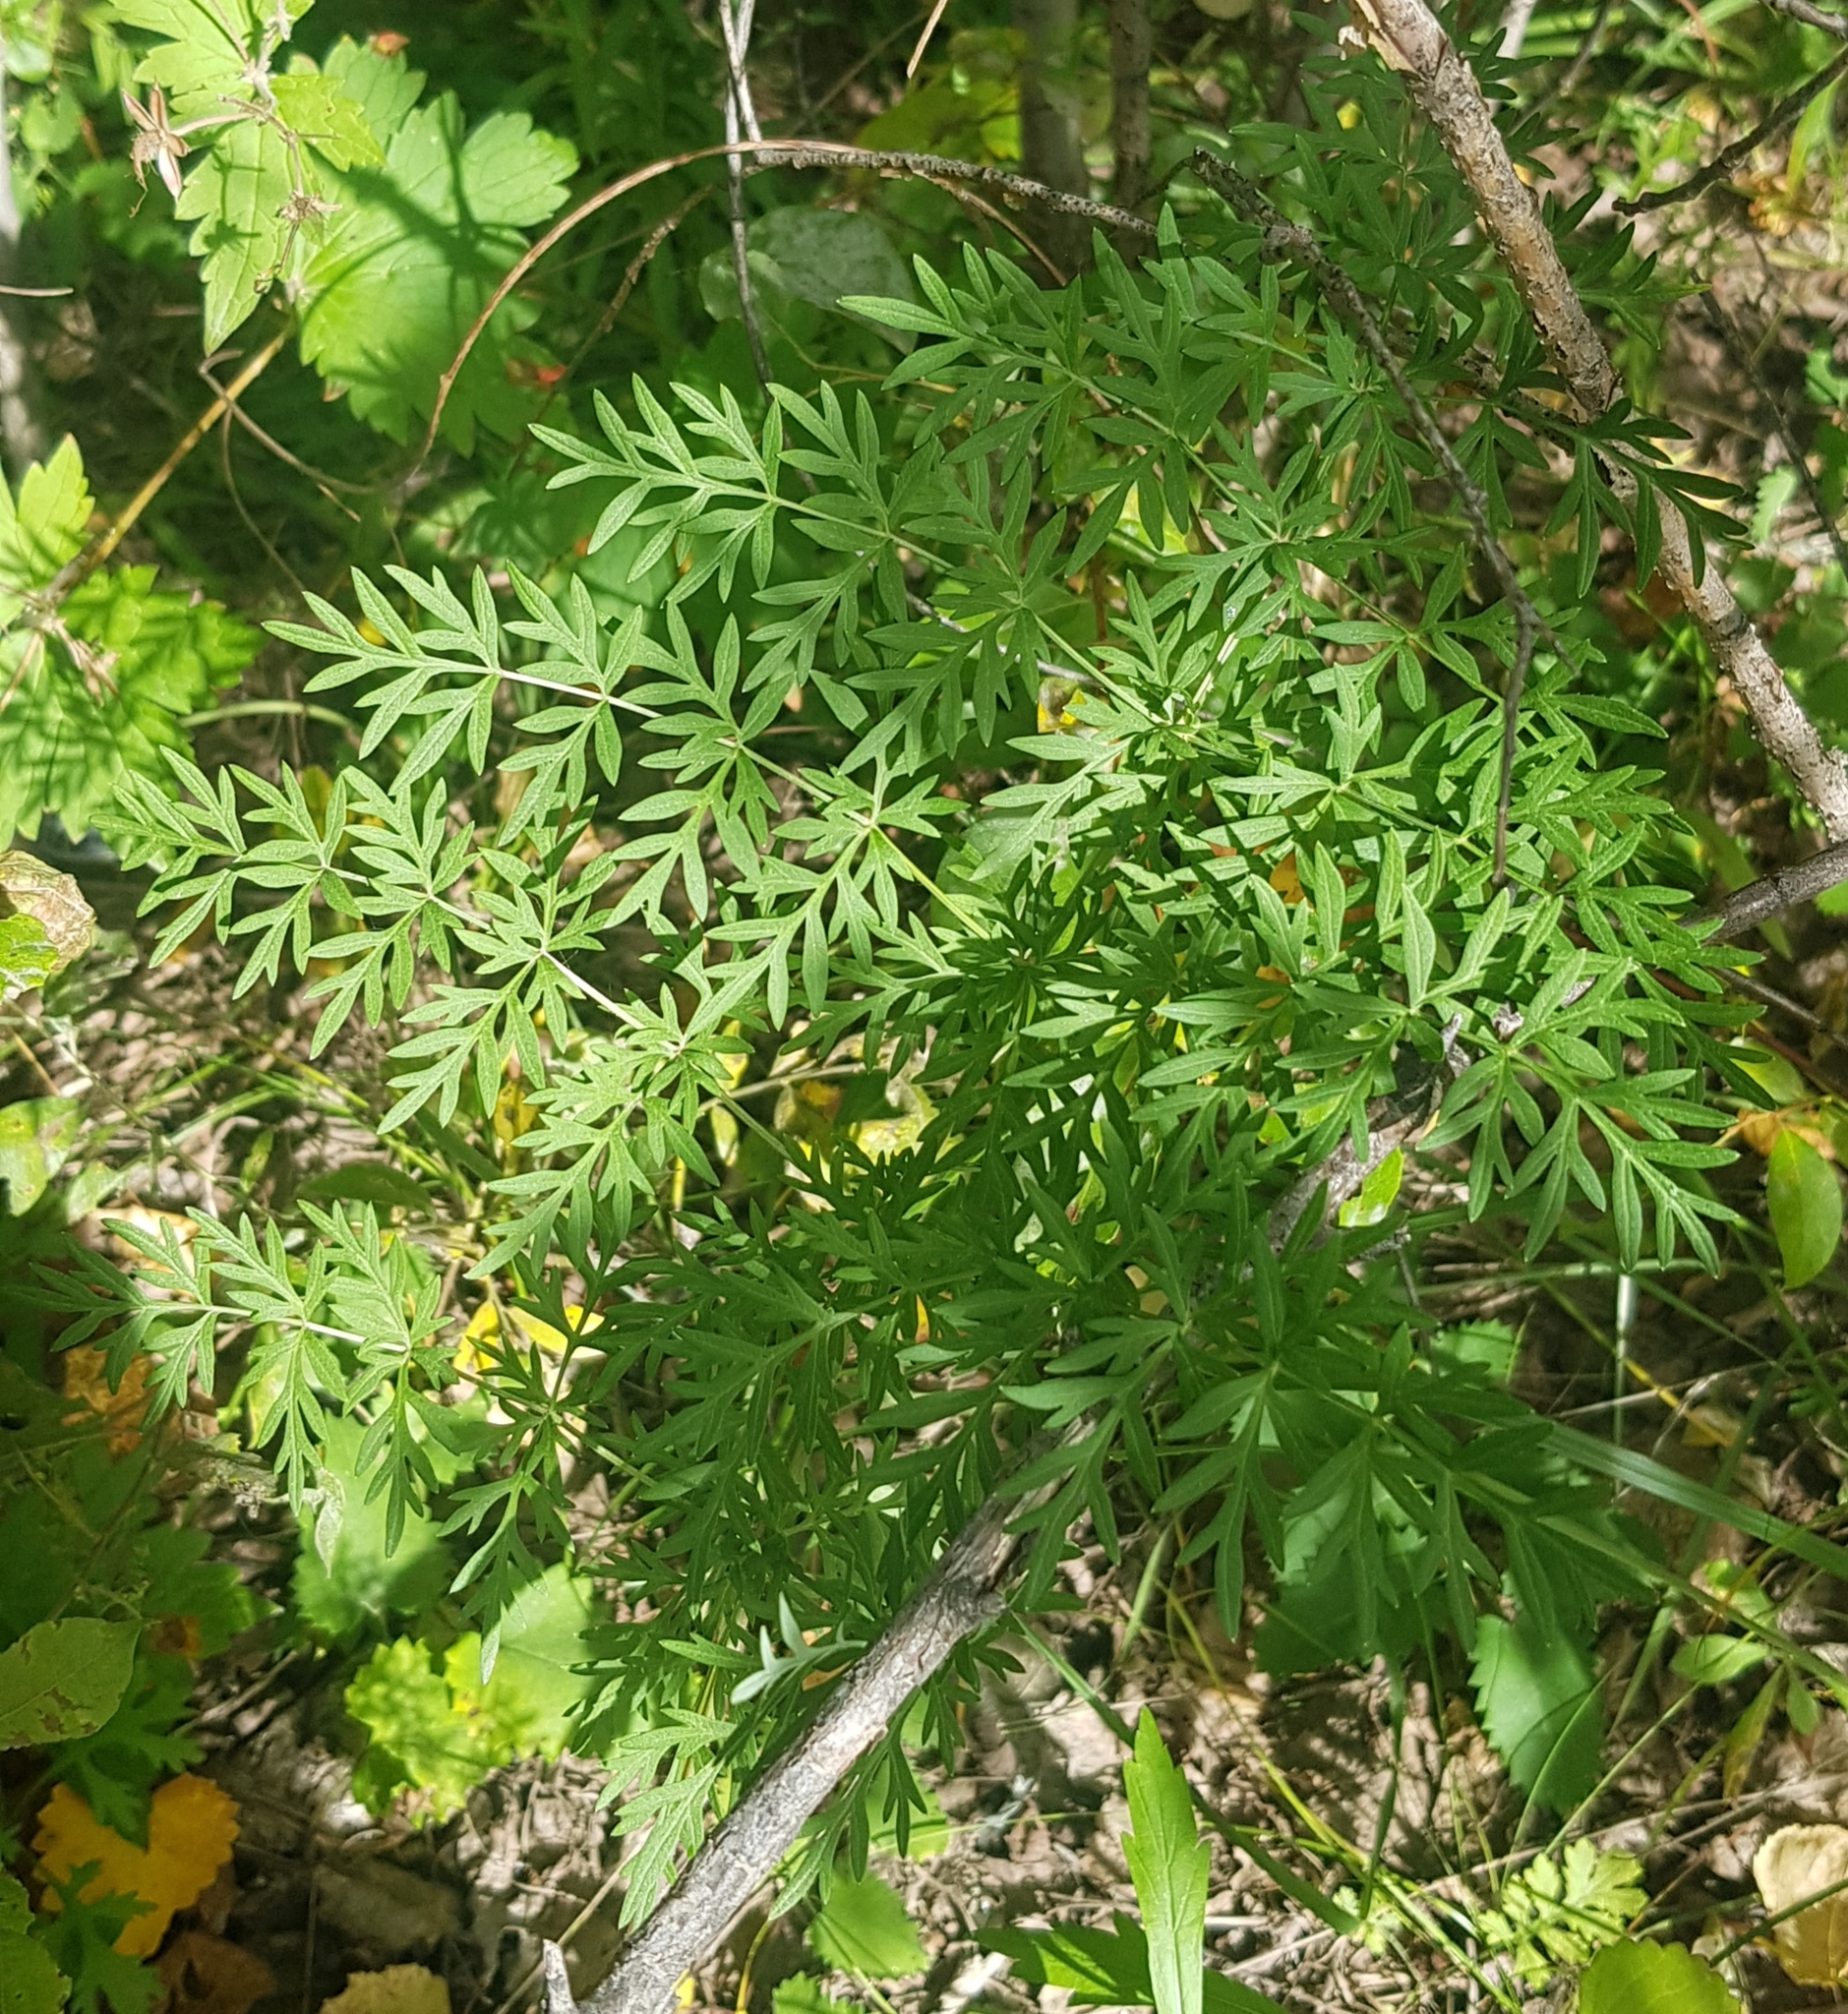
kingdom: Plantae
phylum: Tracheophyta
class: Magnoliopsida
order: Apiales
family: Apiaceae
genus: Kitagawia
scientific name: Kitagawia terebinthacea
